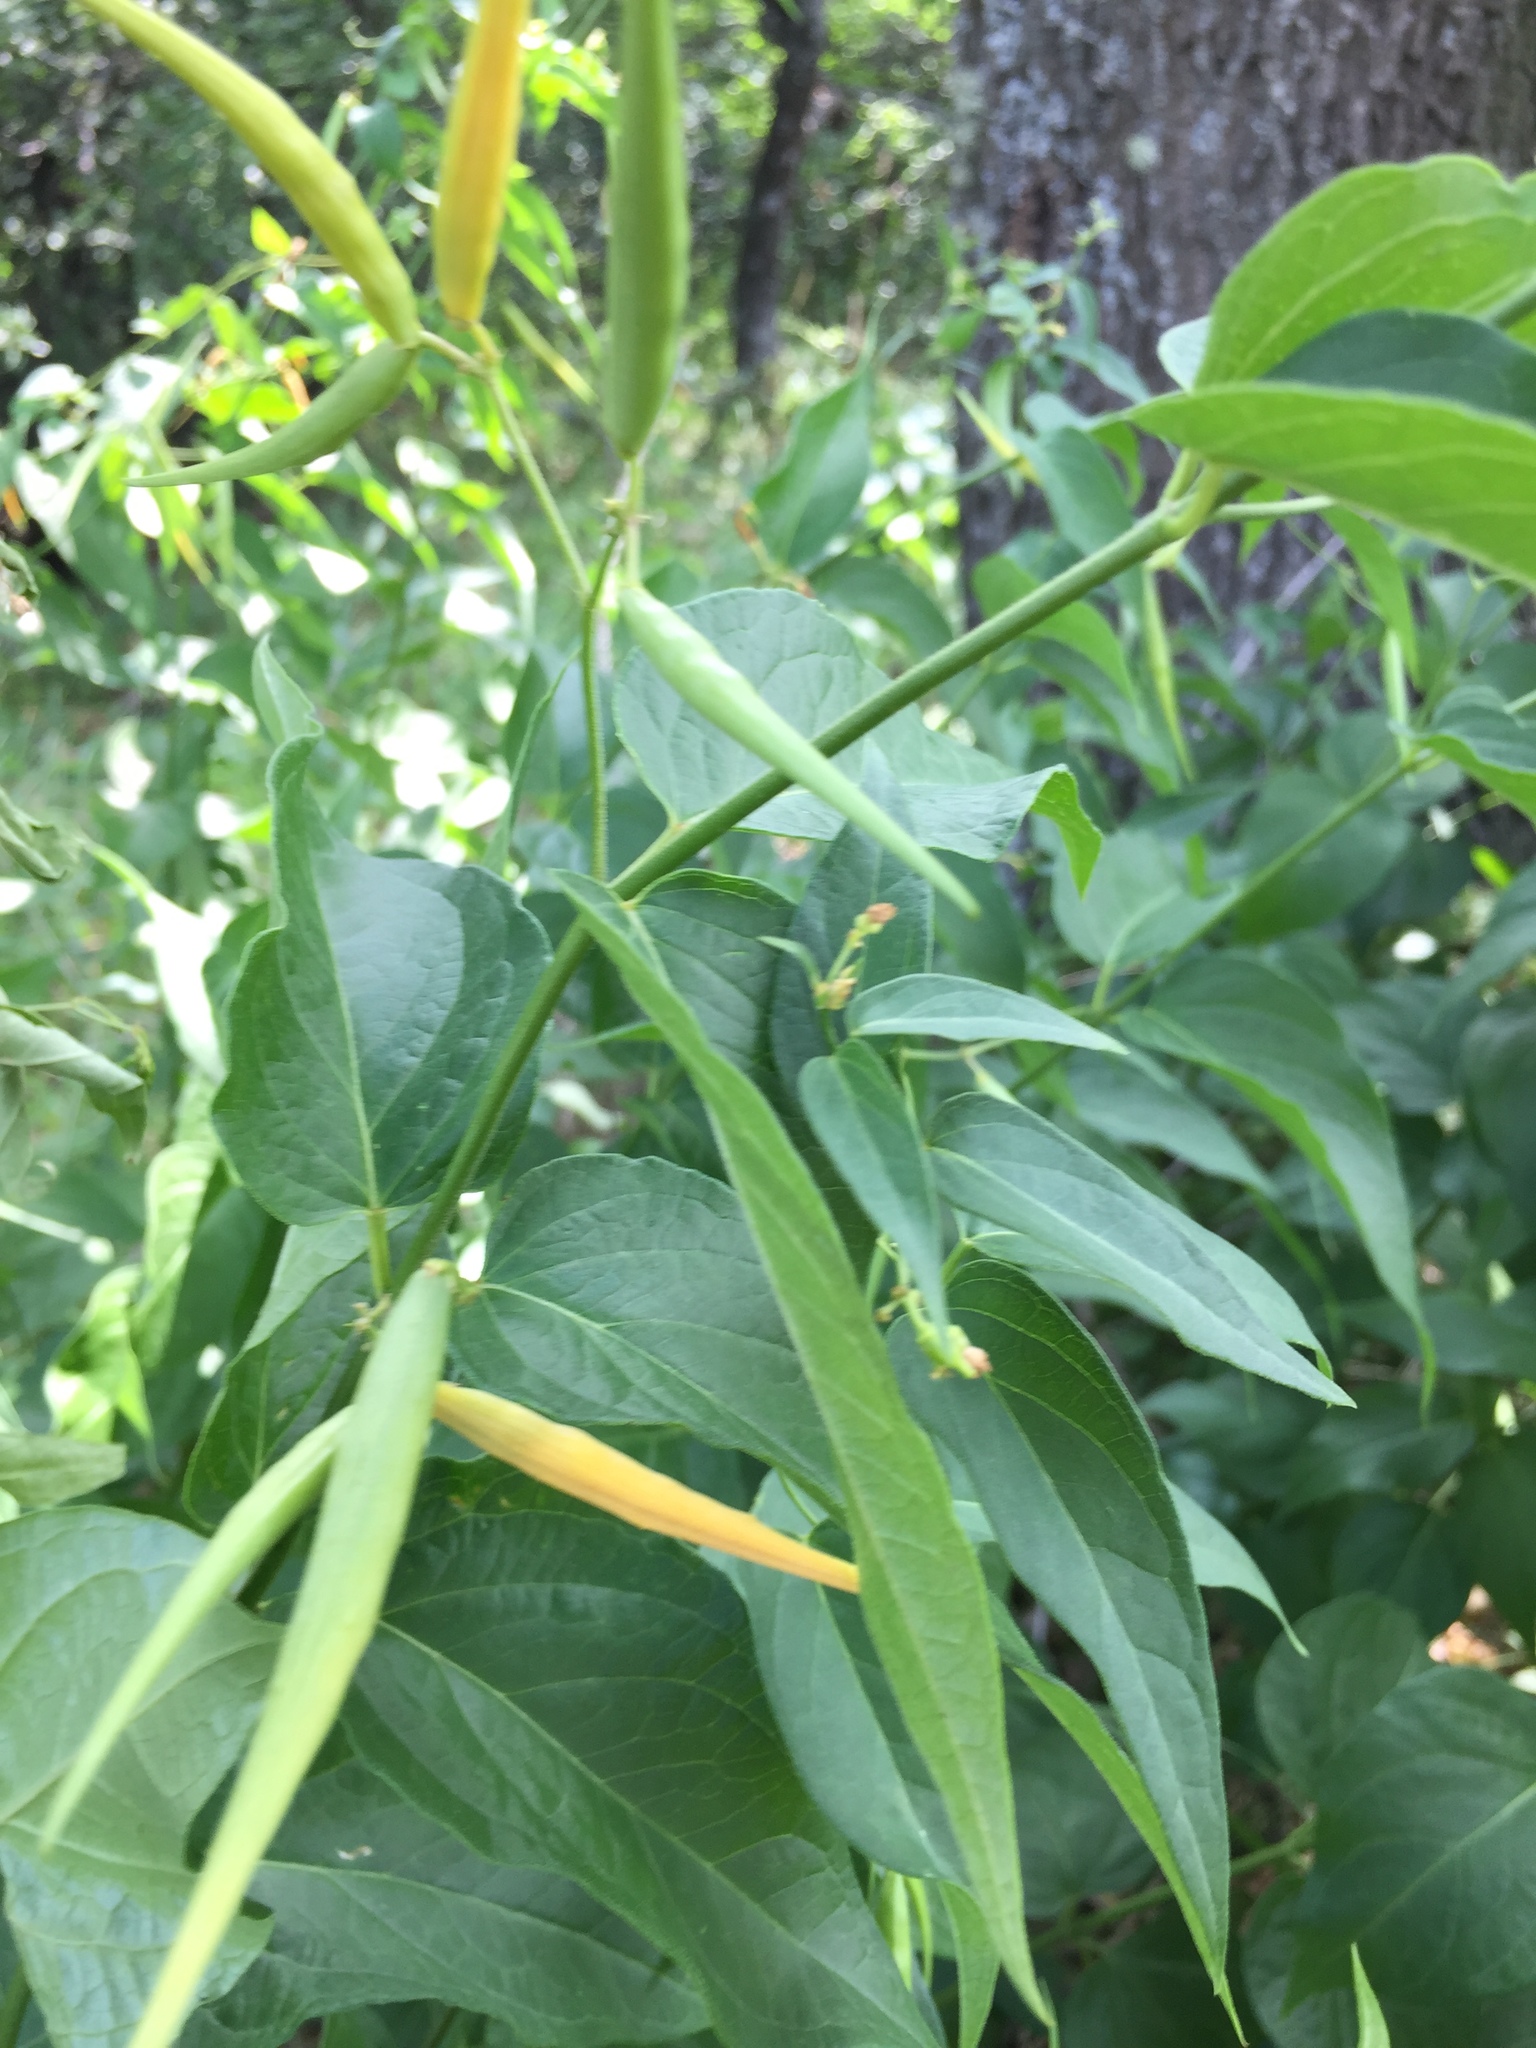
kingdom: Plantae
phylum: Tracheophyta
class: Magnoliopsida
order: Gentianales
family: Apocynaceae
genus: Vincetoxicum
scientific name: Vincetoxicum hirundinaria
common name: White swallowwort
